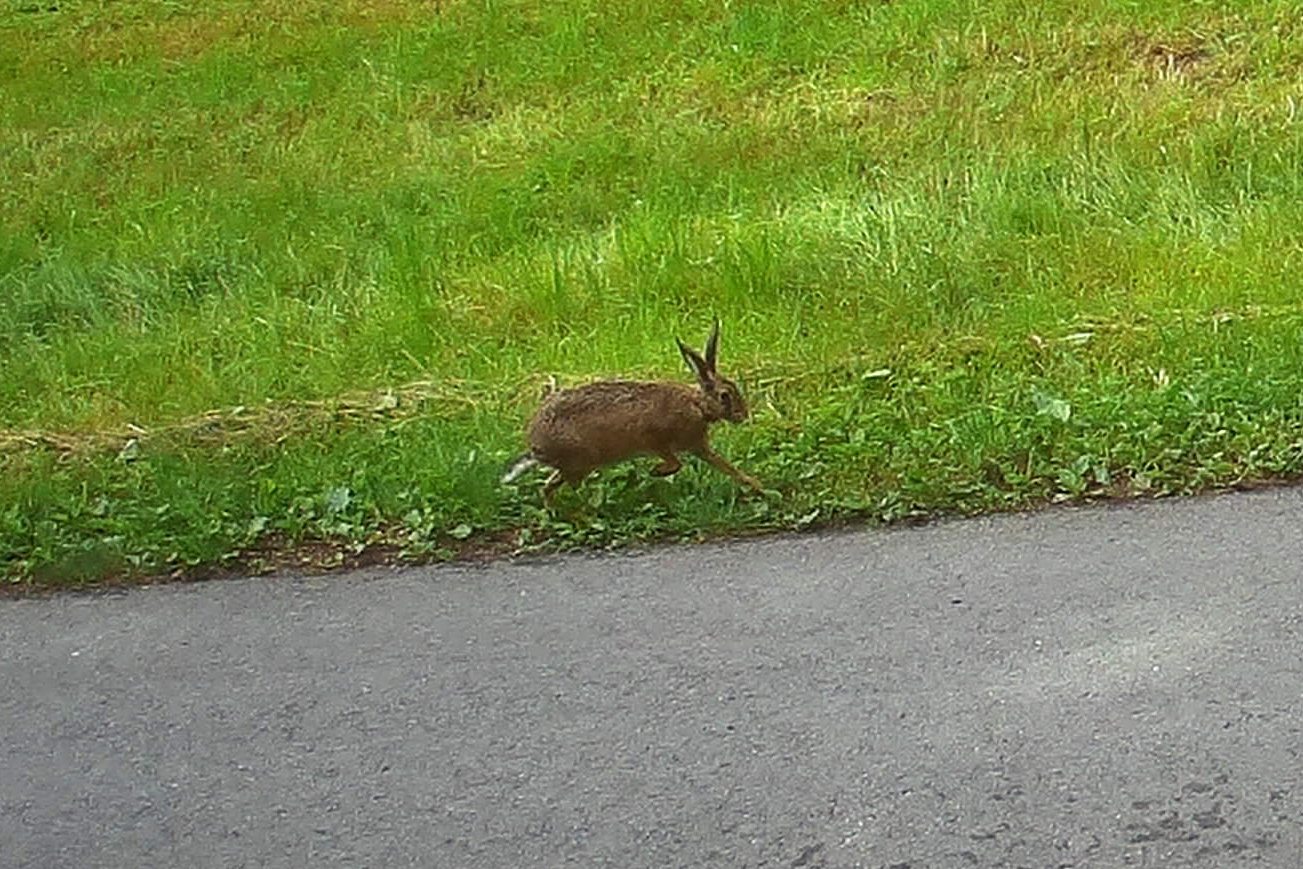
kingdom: Animalia
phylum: Chordata
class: Mammalia
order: Lagomorpha
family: Leporidae
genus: Lepus
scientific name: Lepus europaeus
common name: European hare
